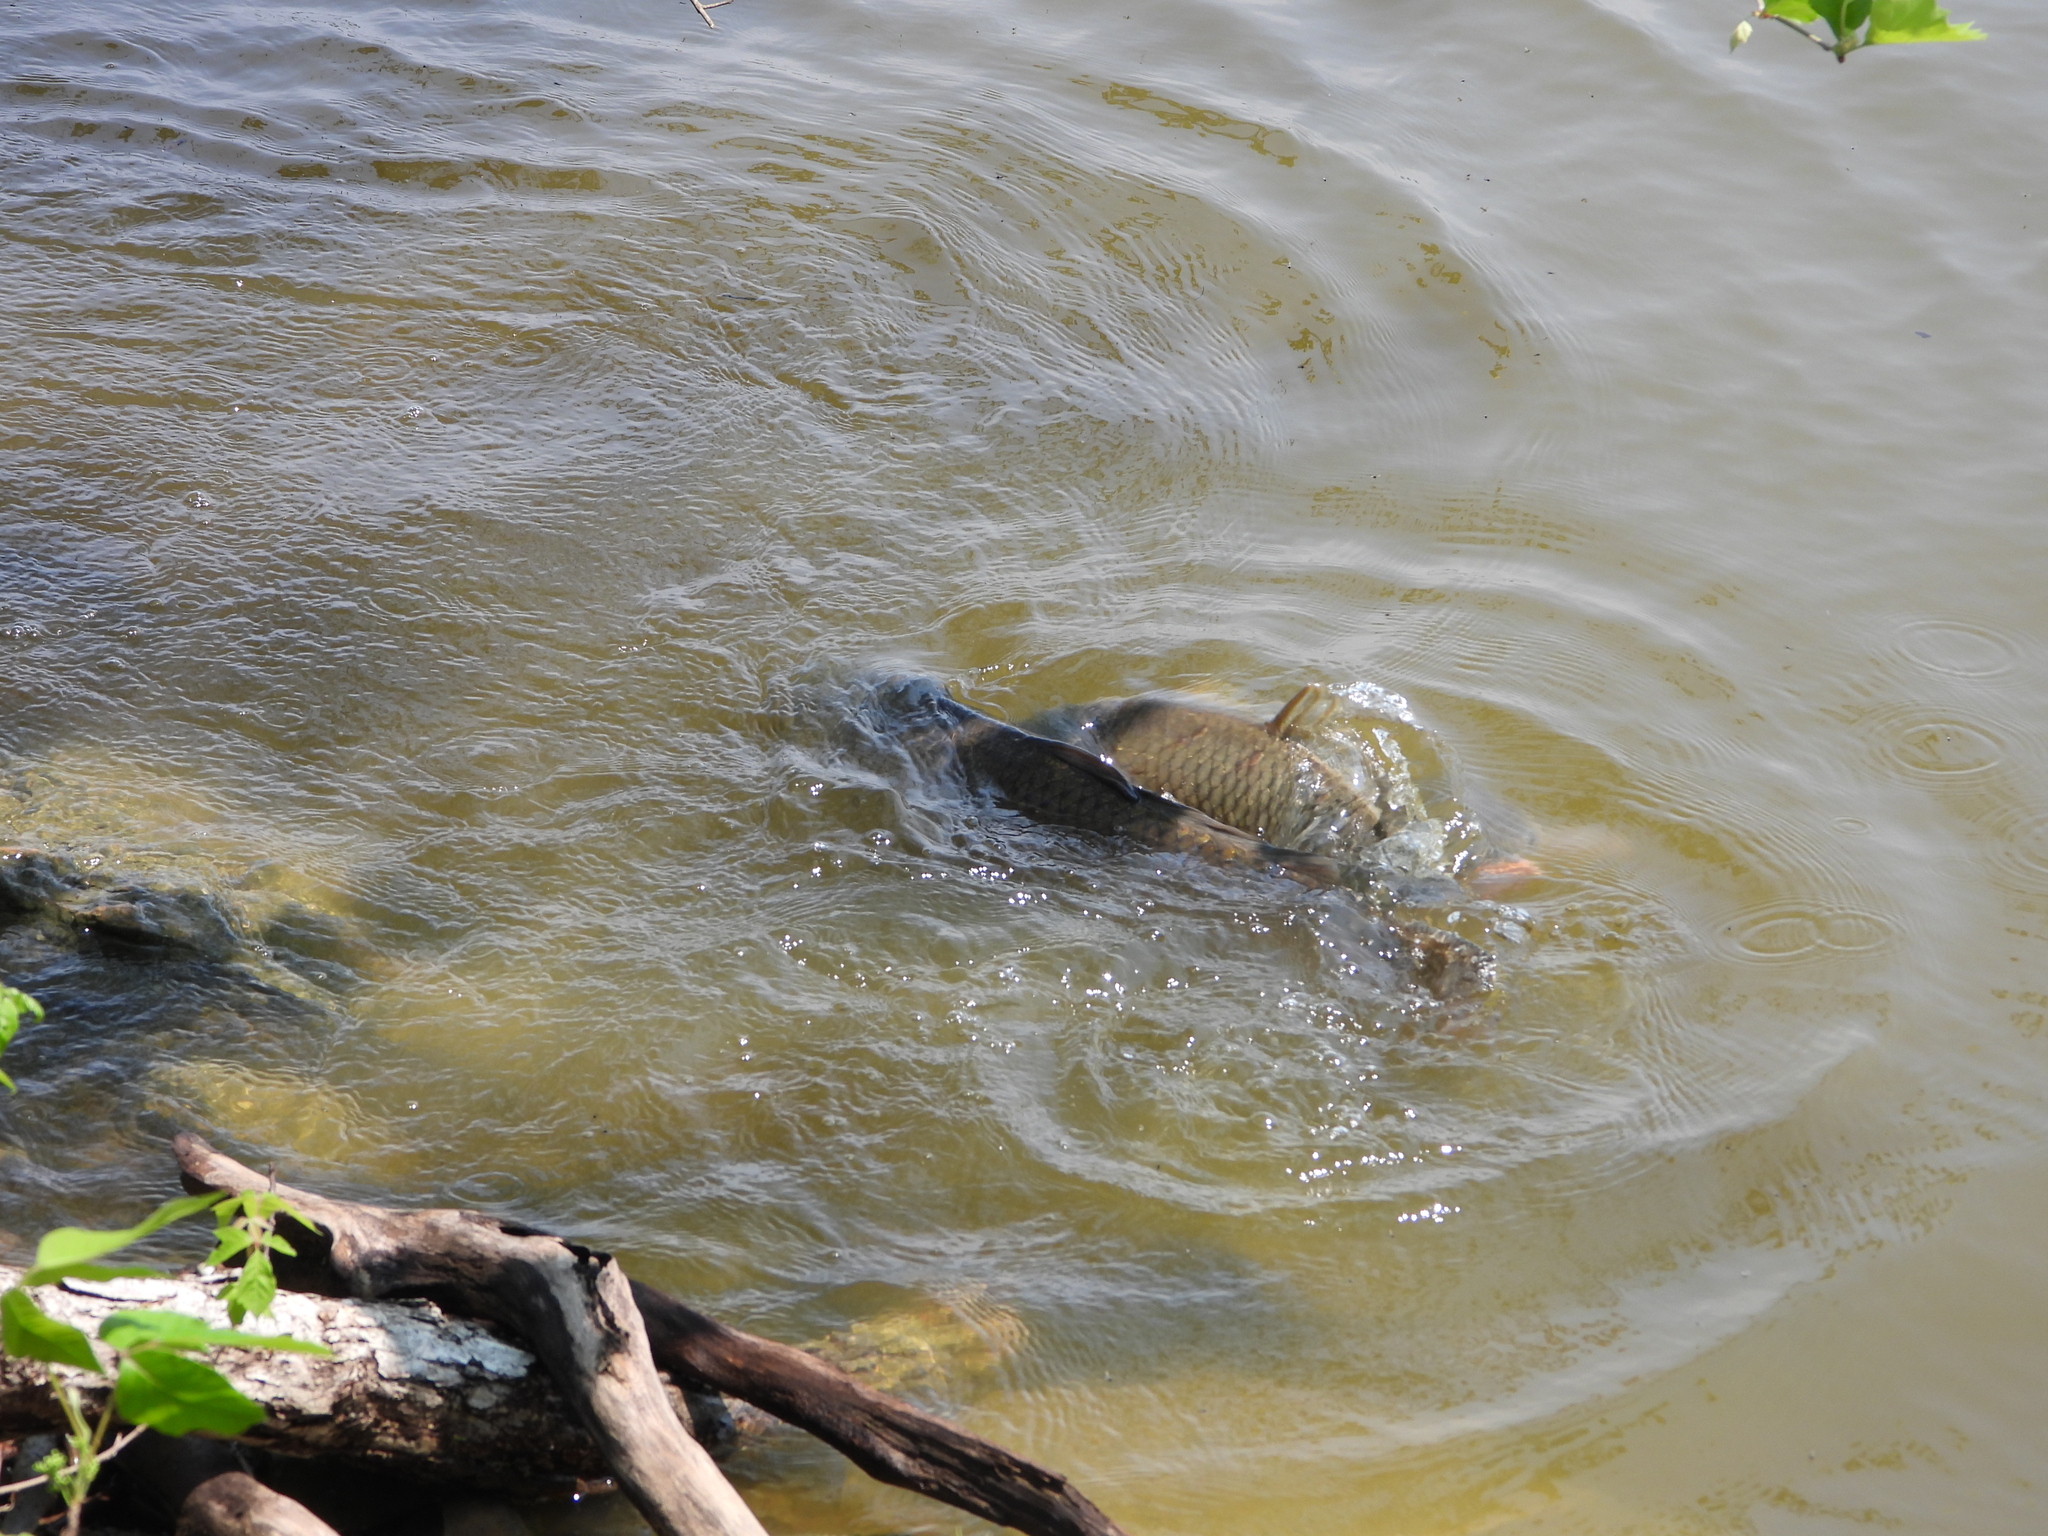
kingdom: Animalia
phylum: Chordata
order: Cypriniformes
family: Cyprinidae
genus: Cyprinus
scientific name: Cyprinus carpio
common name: Common carp
